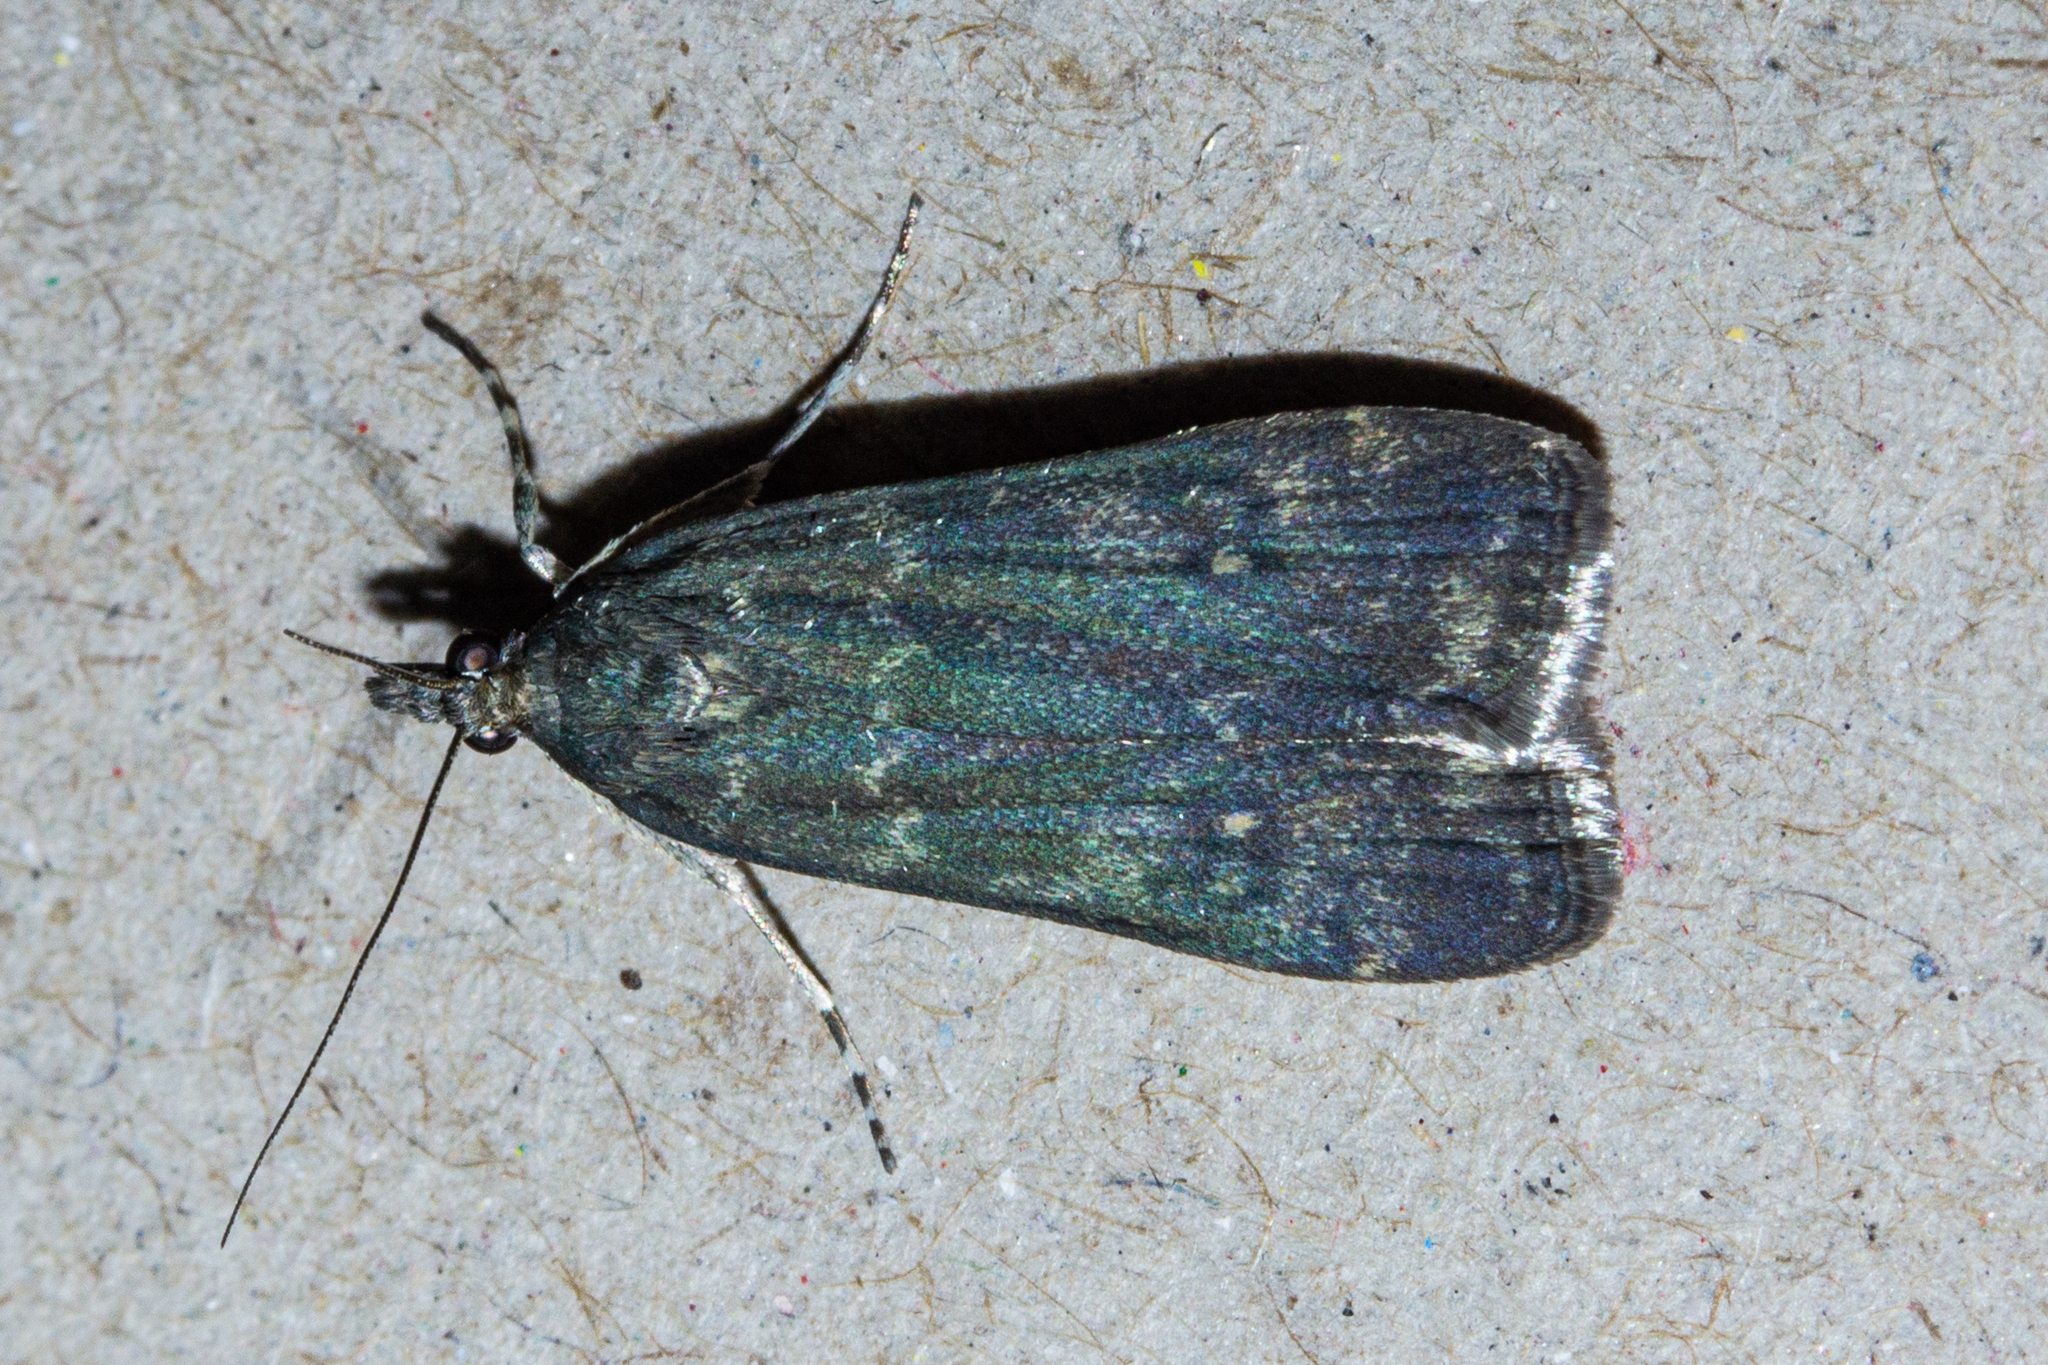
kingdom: Animalia
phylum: Arthropoda
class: Insecta
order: Lepidoptera
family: Crambidae
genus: Eudonia
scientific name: Eudonia cataxesta
